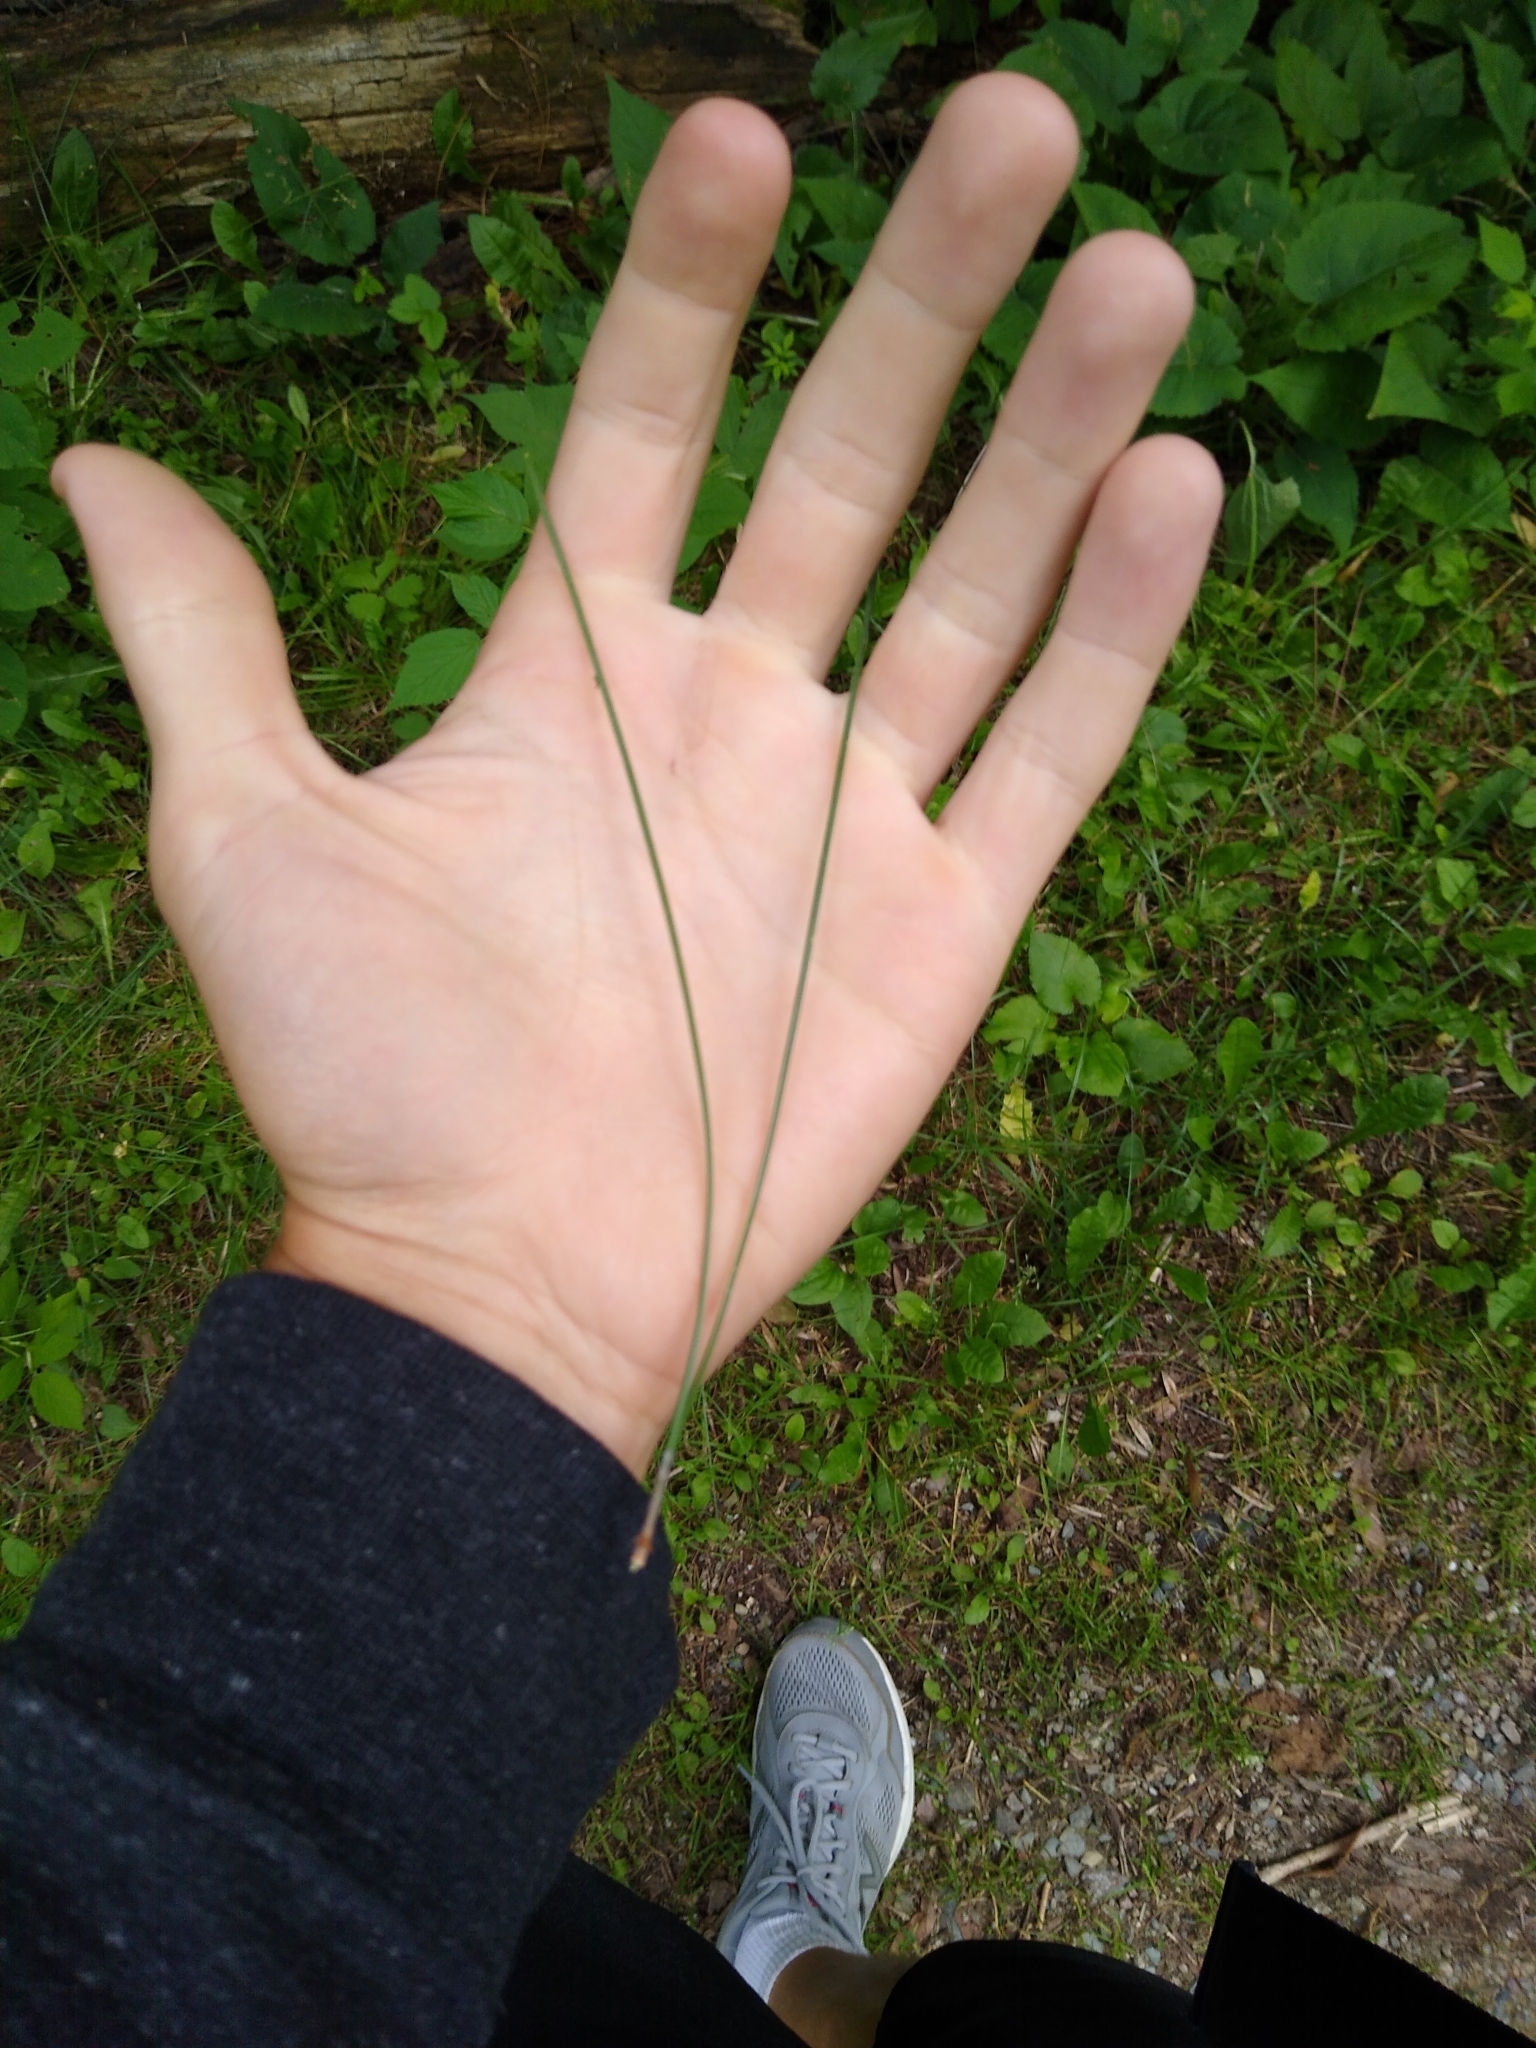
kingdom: Plantae
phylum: Tracheophyta
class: Pinopsida
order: Pinales
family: Pinaceae
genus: Pinus
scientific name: Pinus resinosa
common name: Norway pine
